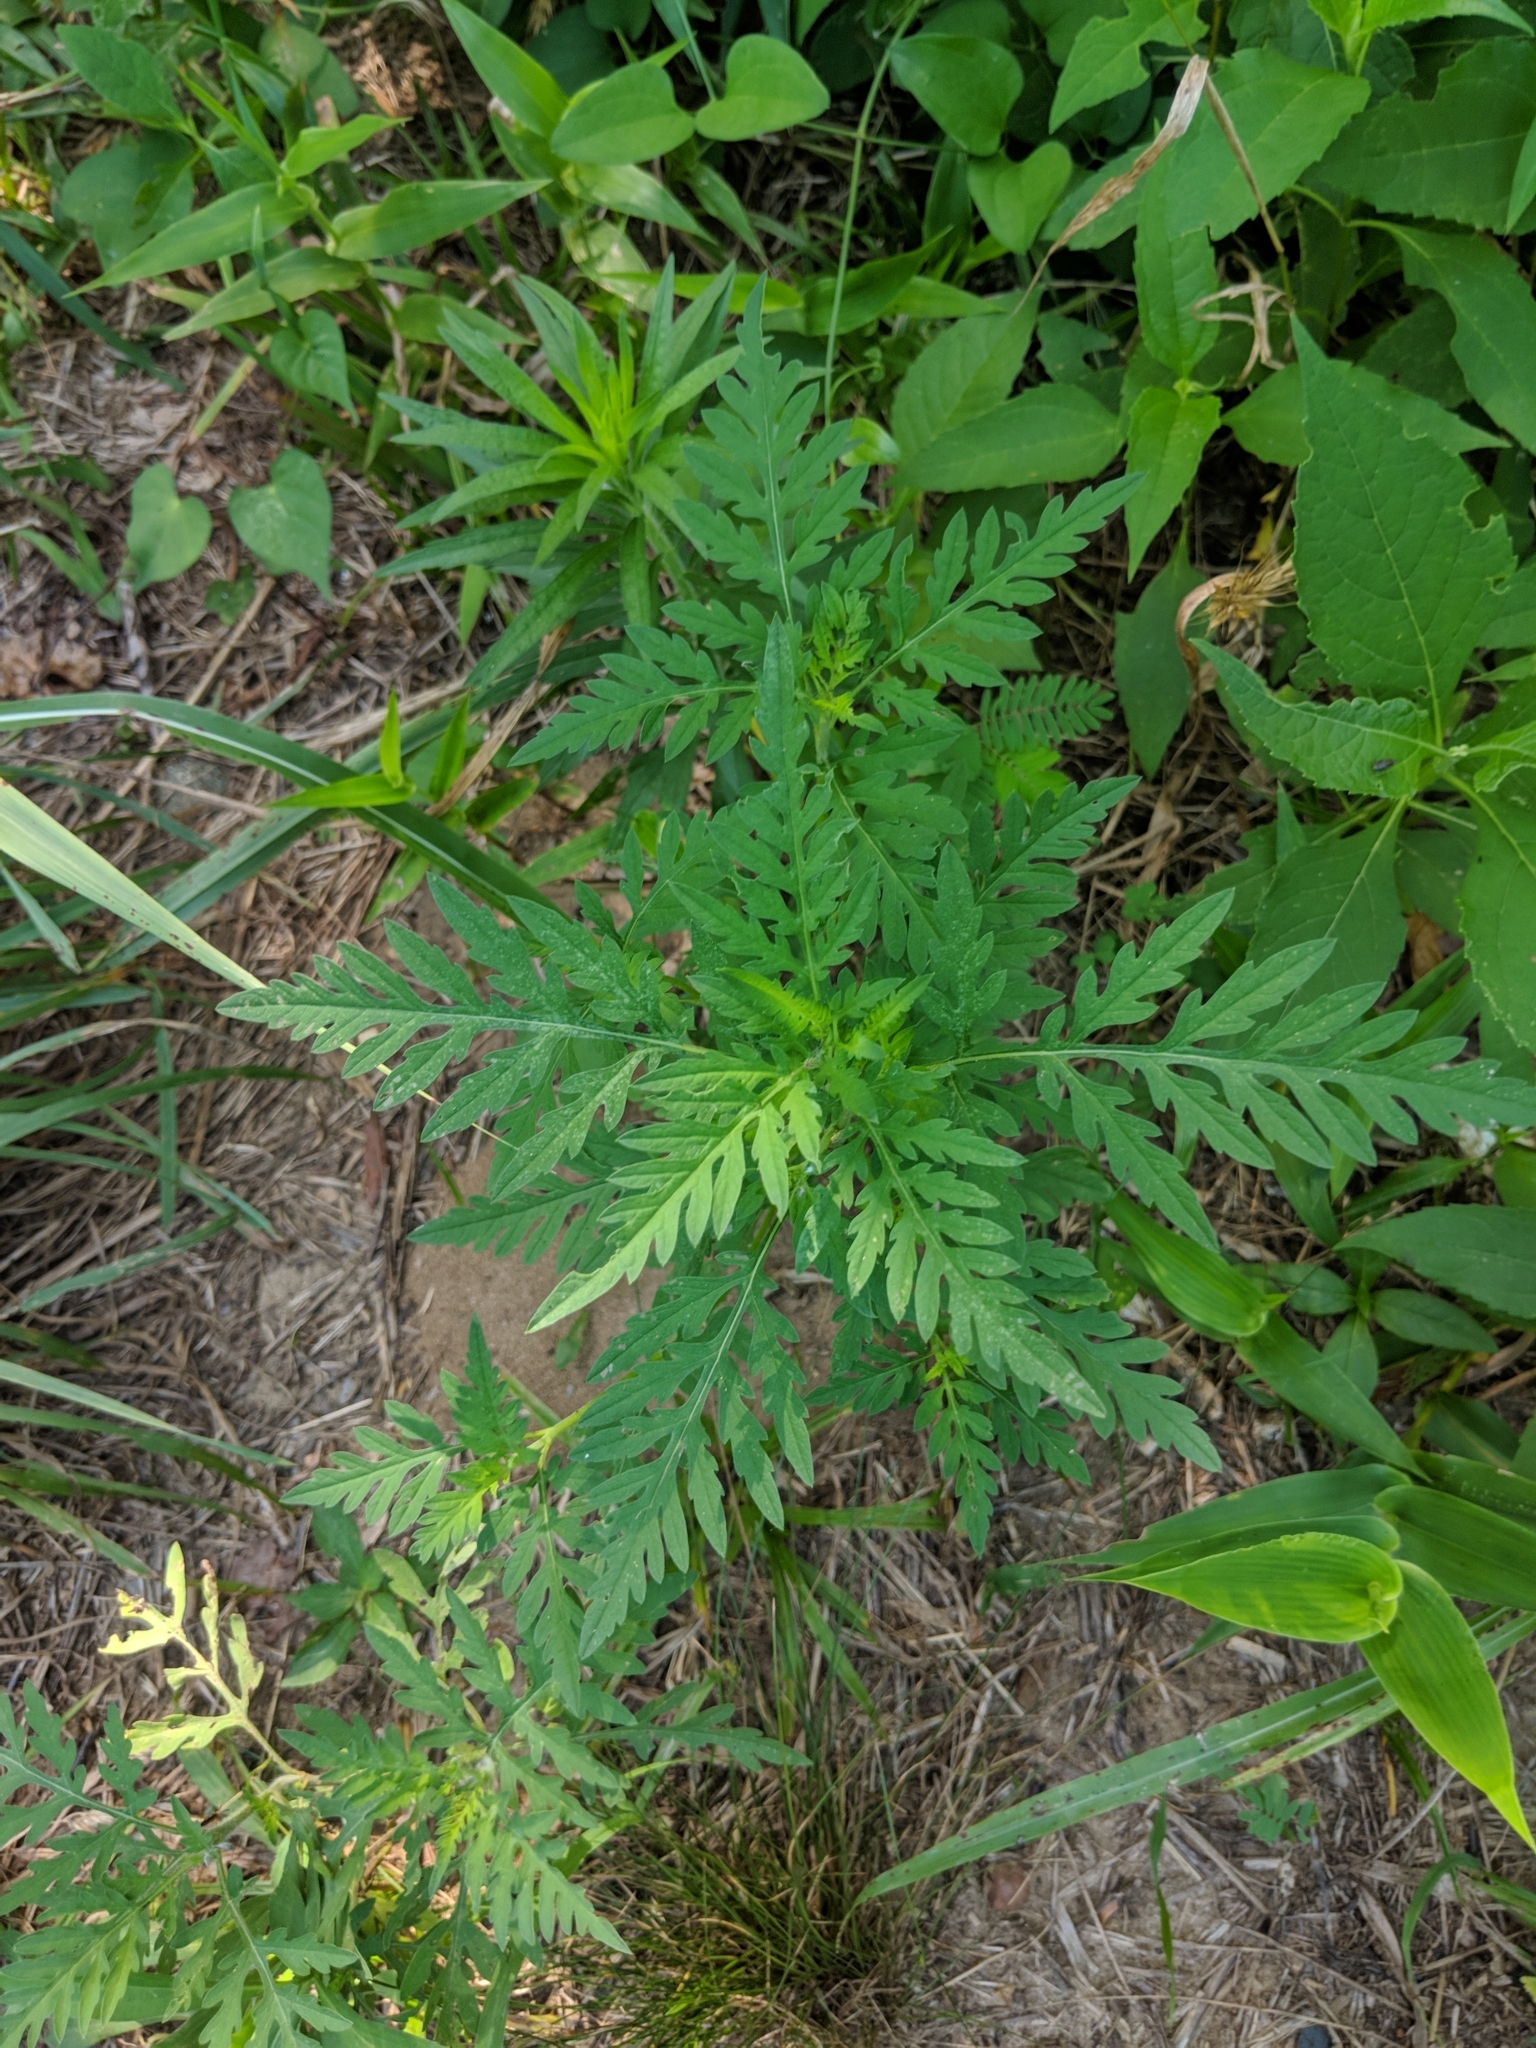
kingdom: Plantae
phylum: Tracheophyta
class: Magnoliopsida
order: Asterales
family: Asteraceae
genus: Ambrosia
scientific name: Ambrosia artemisiifolia
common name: Annual ragweed
